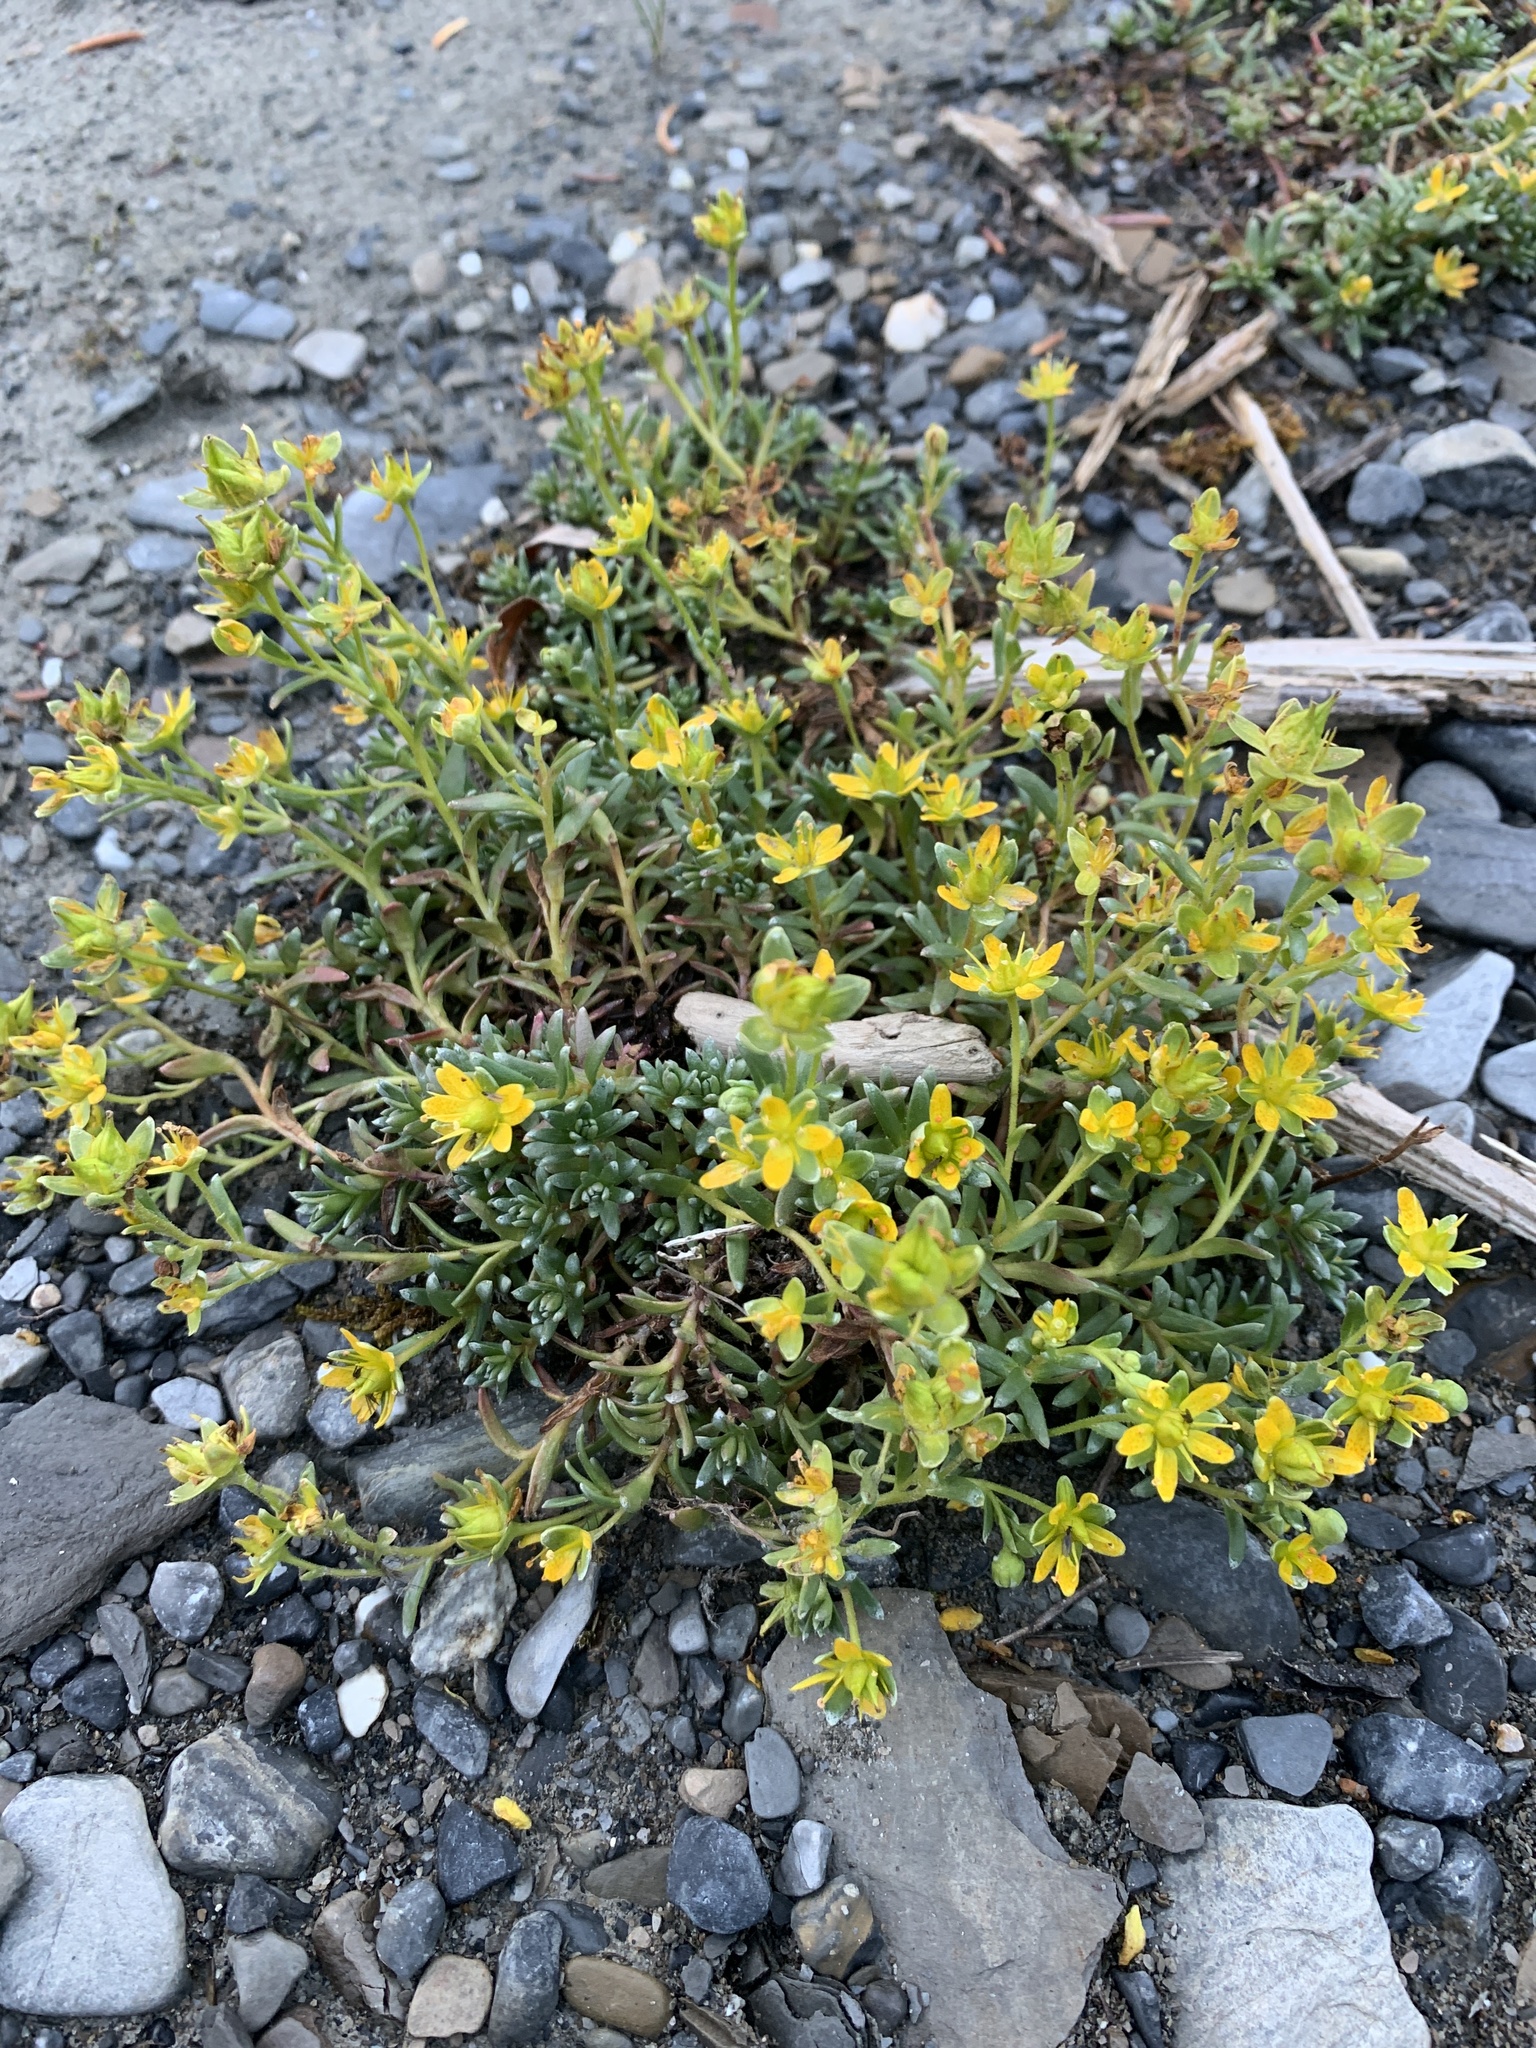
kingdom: Plantae
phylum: Tracheophyta
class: Magnoliopsida
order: Saxifragales
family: Saxifragaceae
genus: Saxifraga
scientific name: Saxifraga aizoides
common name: Yellow mountain saxifrage
